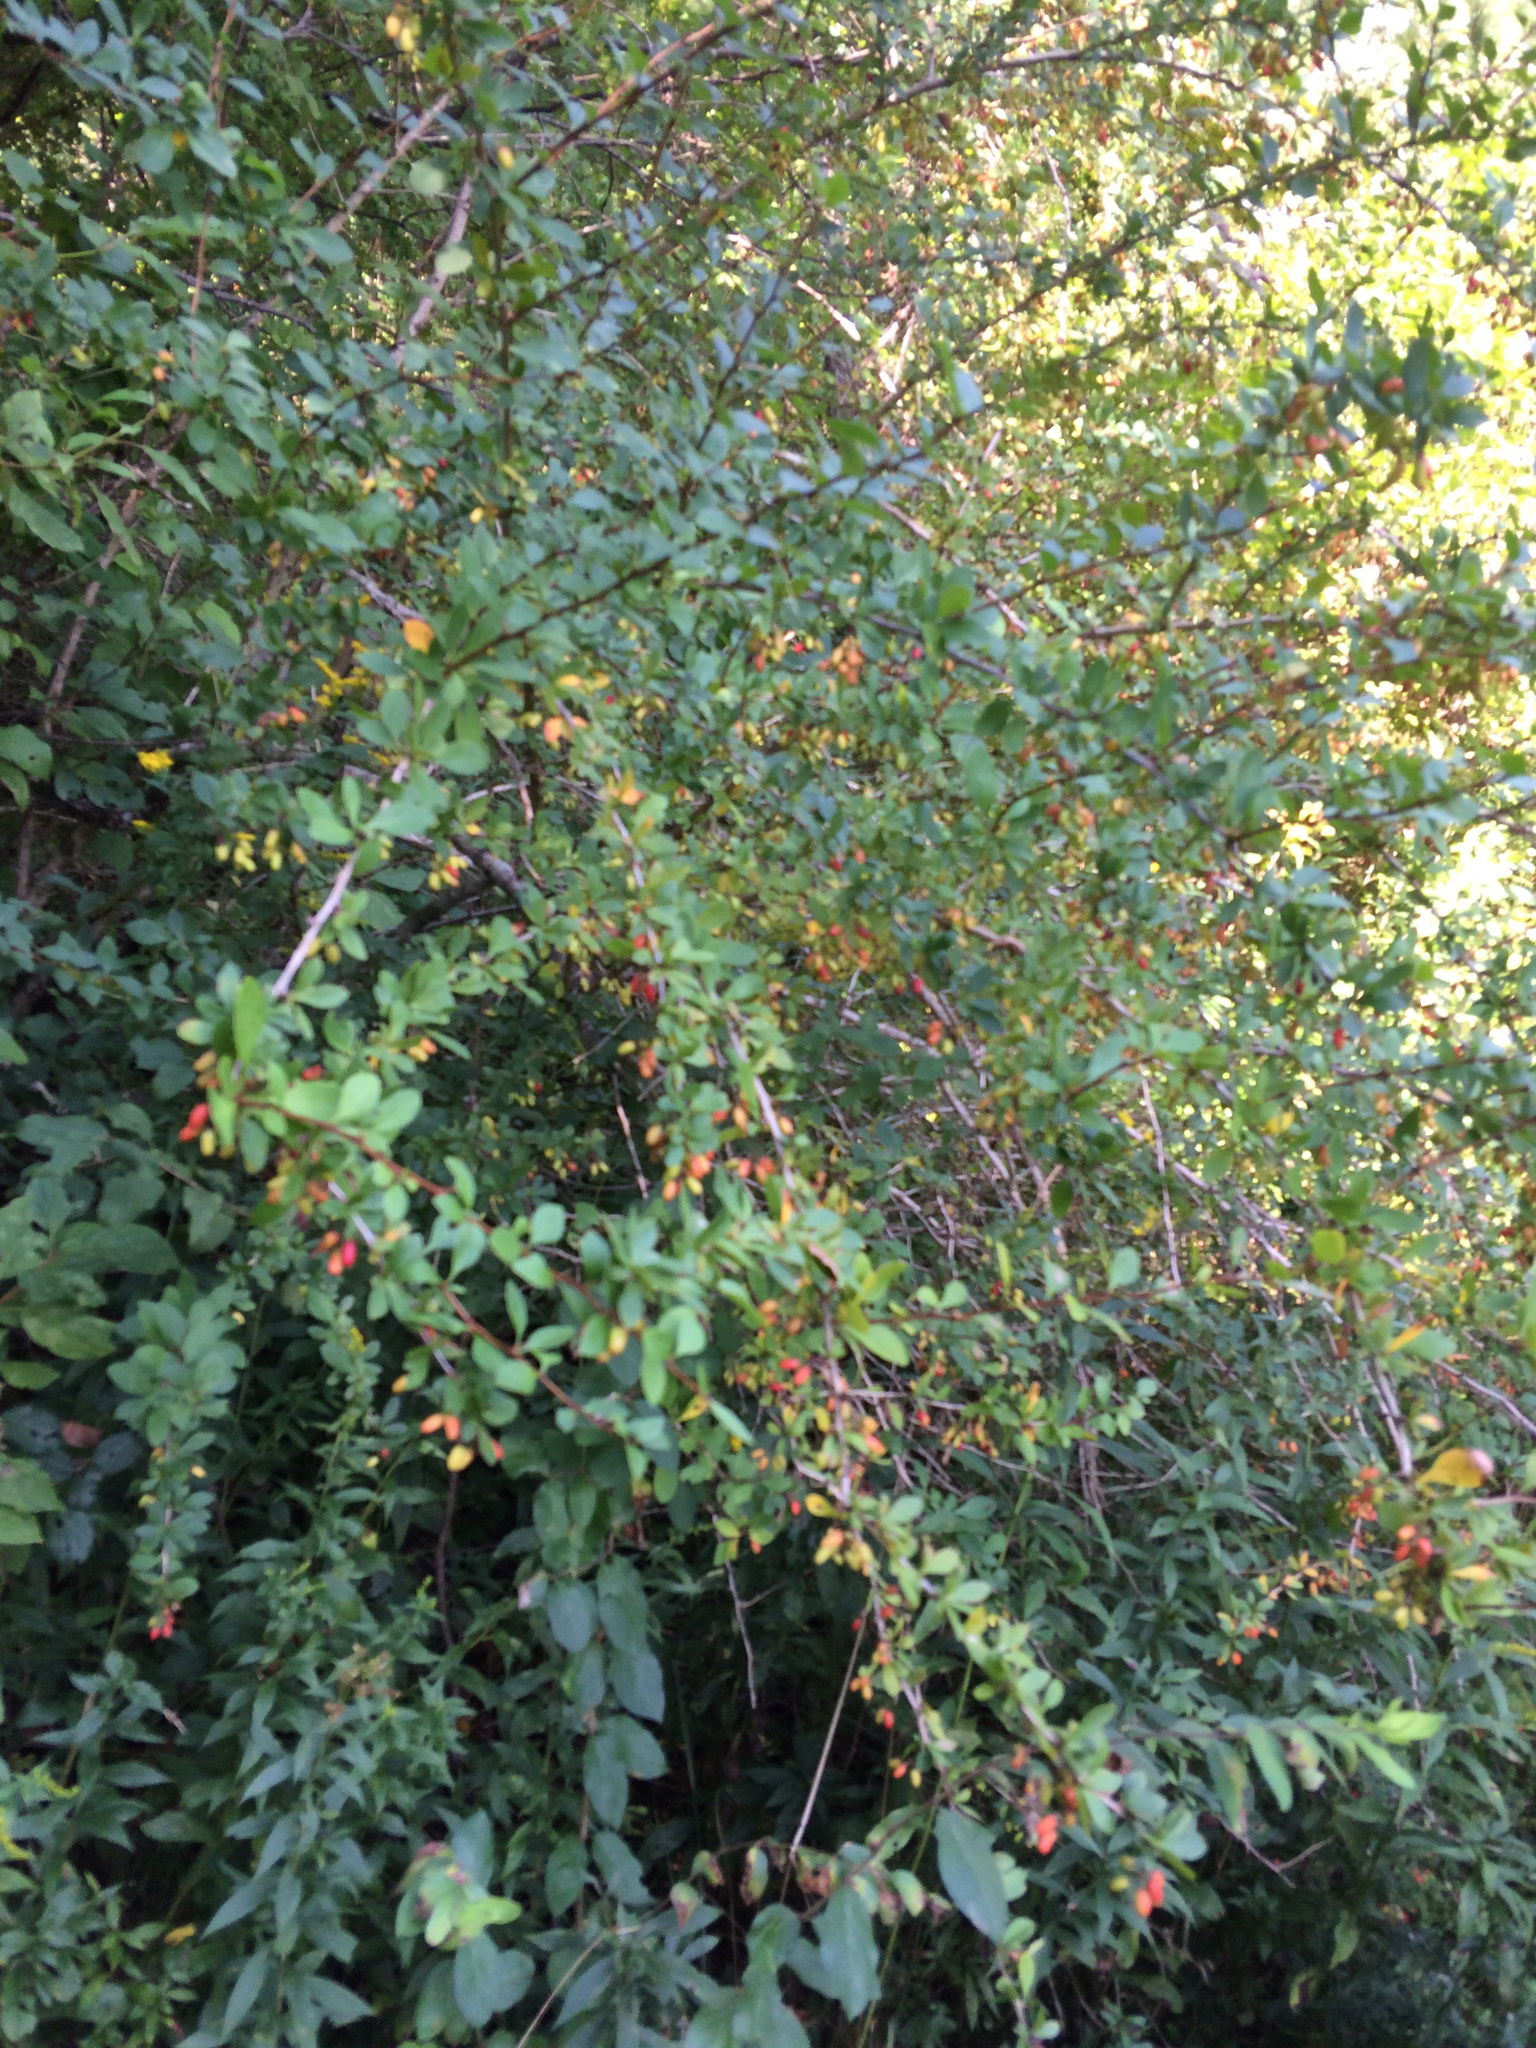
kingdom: Plantae
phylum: Tracheophyta
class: Magnoliopsida
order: Ranunculales
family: Berberidaceae
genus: Berberis
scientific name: Berberis thunbergii
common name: Japanese barberry
